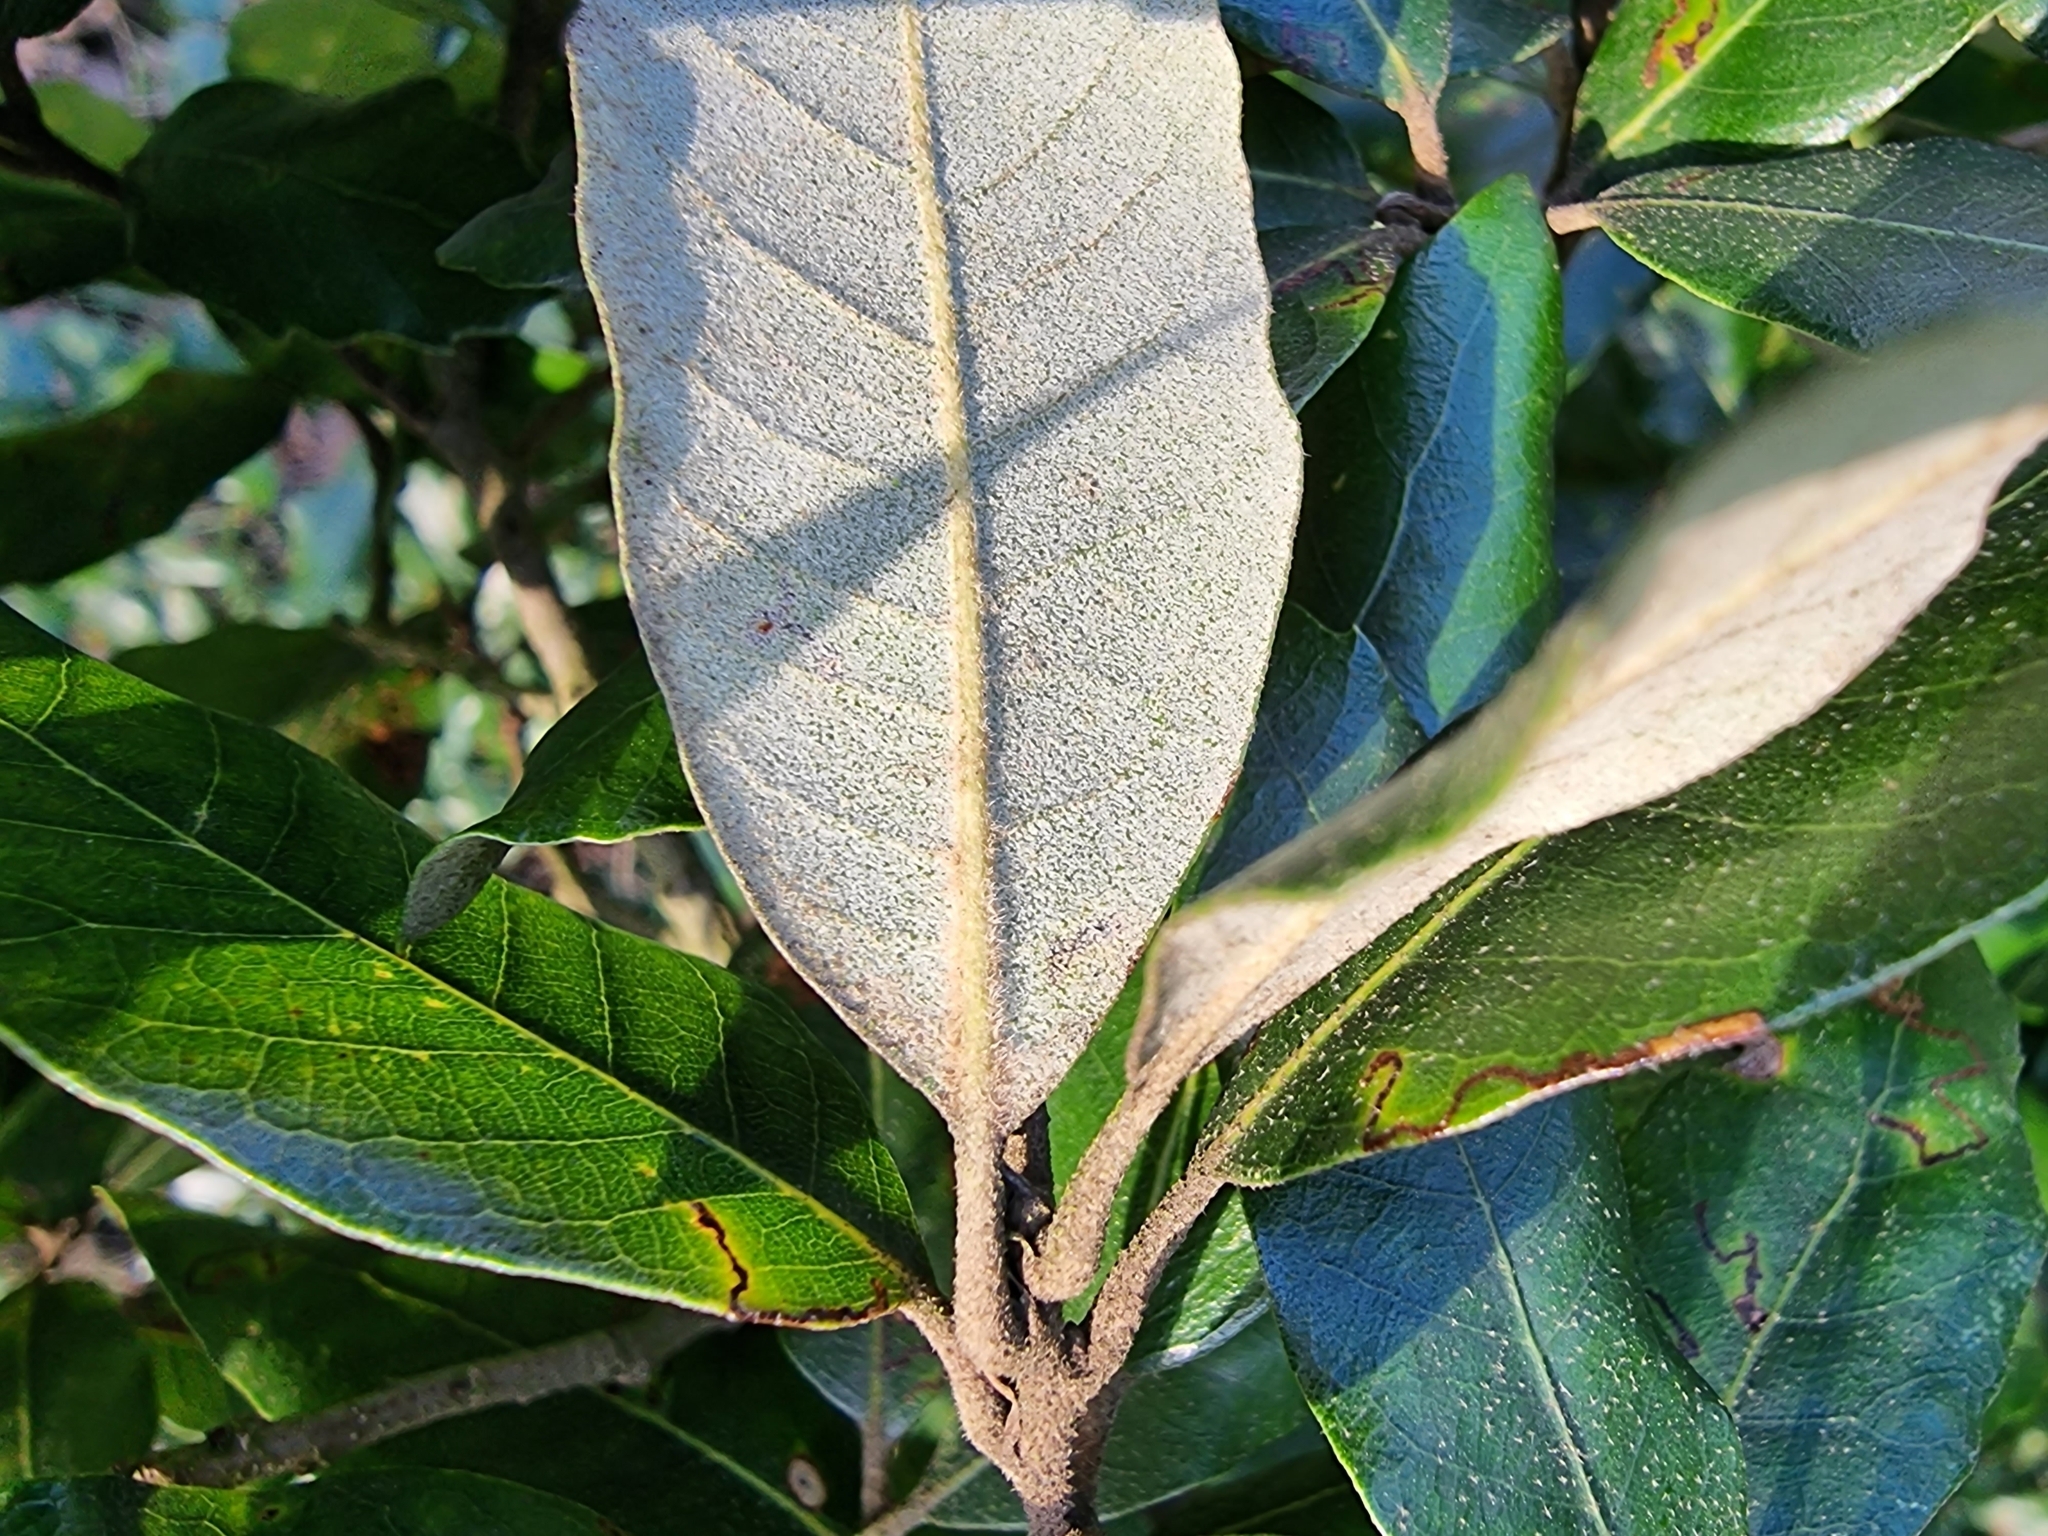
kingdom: Plantae
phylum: Tracheophyta
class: Magnoliopsida
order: Fagales
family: Fagaceae
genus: Quercus
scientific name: Quercus ilex
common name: Evergreen oak
